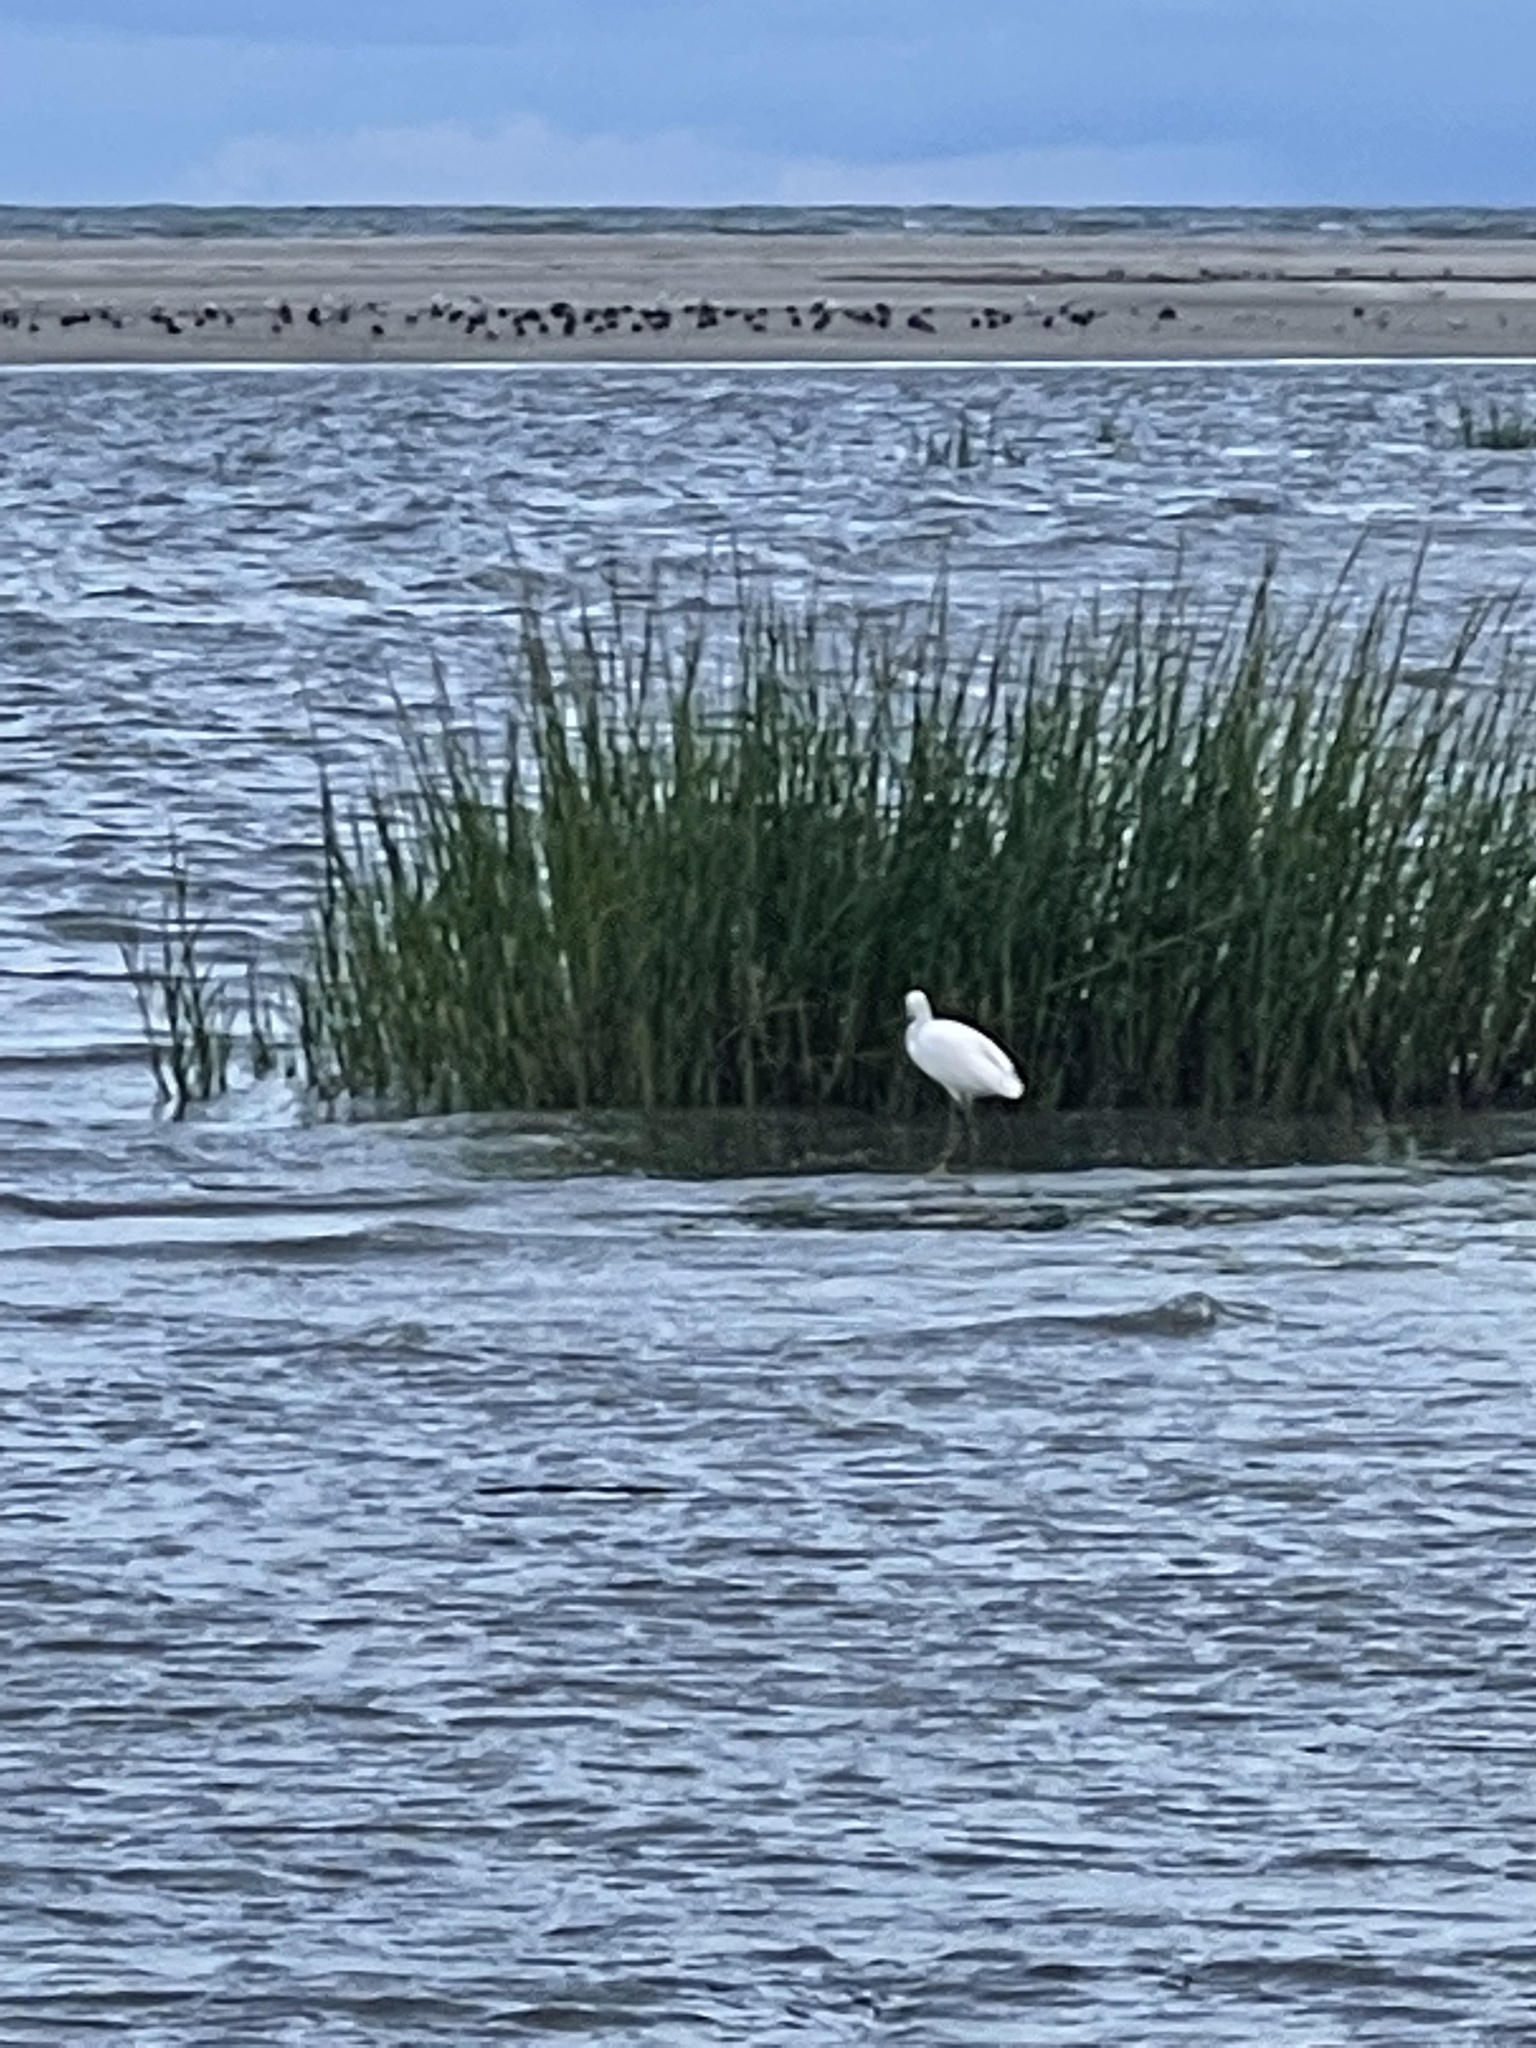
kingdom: Animalia
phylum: Chordata
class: Aves
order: Pelecaniformes
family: Ardeidae
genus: Egretta
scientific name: Egretta thula
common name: Snowy egret
